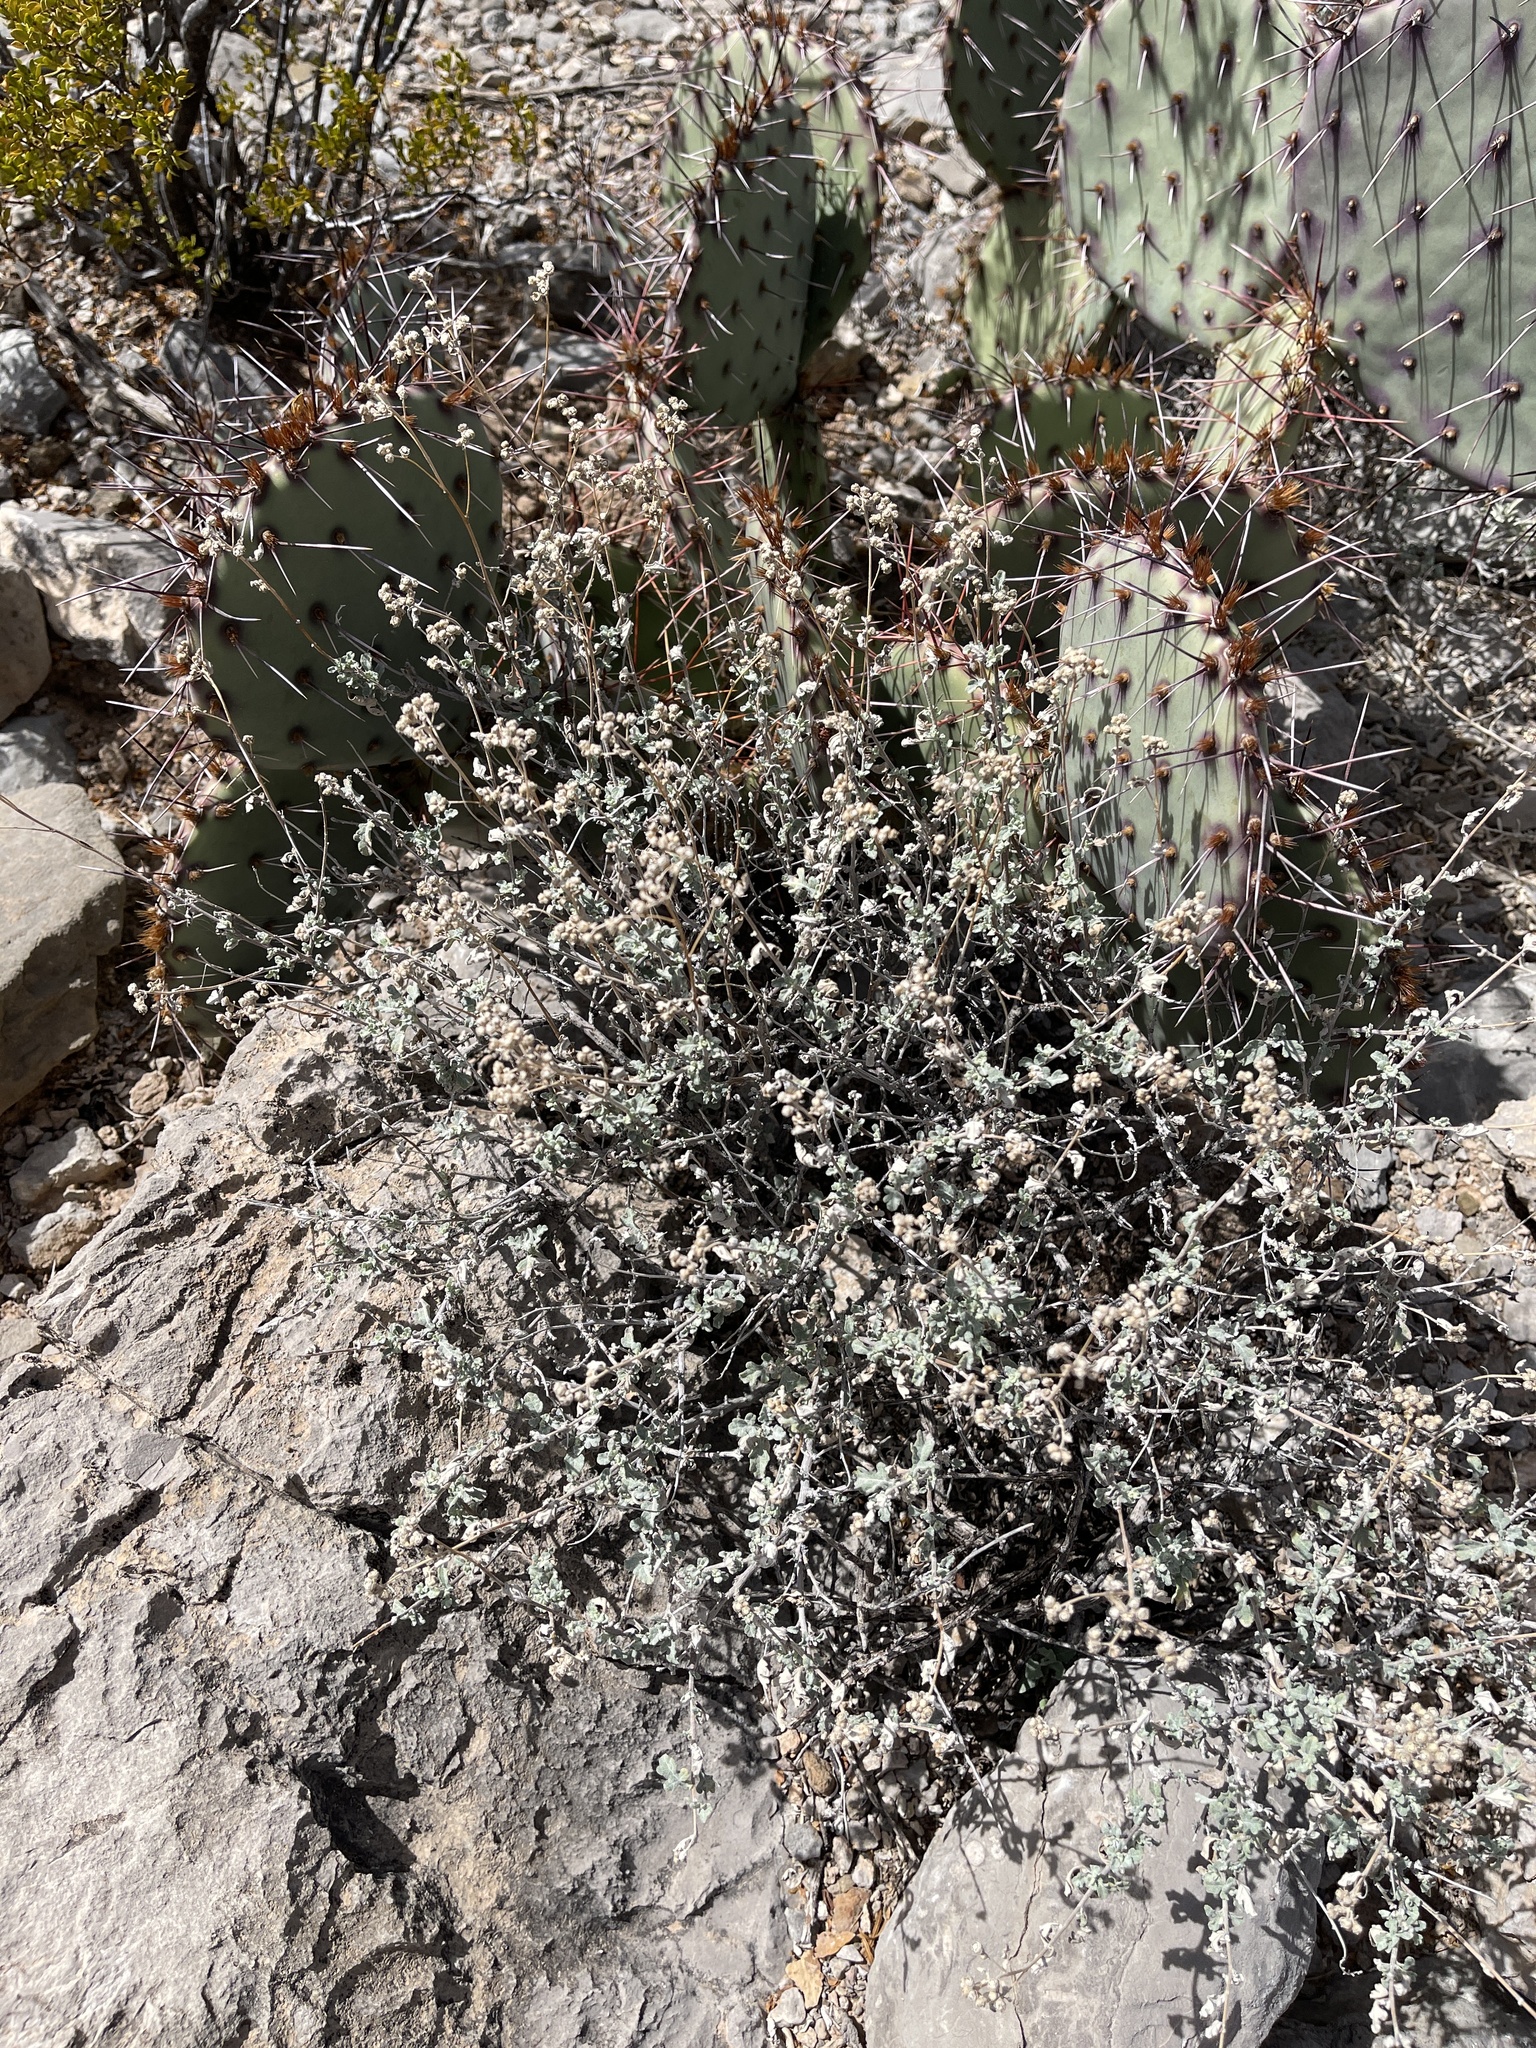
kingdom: Plantae
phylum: Tracheophyta
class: Magnoliopsida
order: Asterales
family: Asteraceae
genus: Parthenium
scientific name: Parthenium incanum
